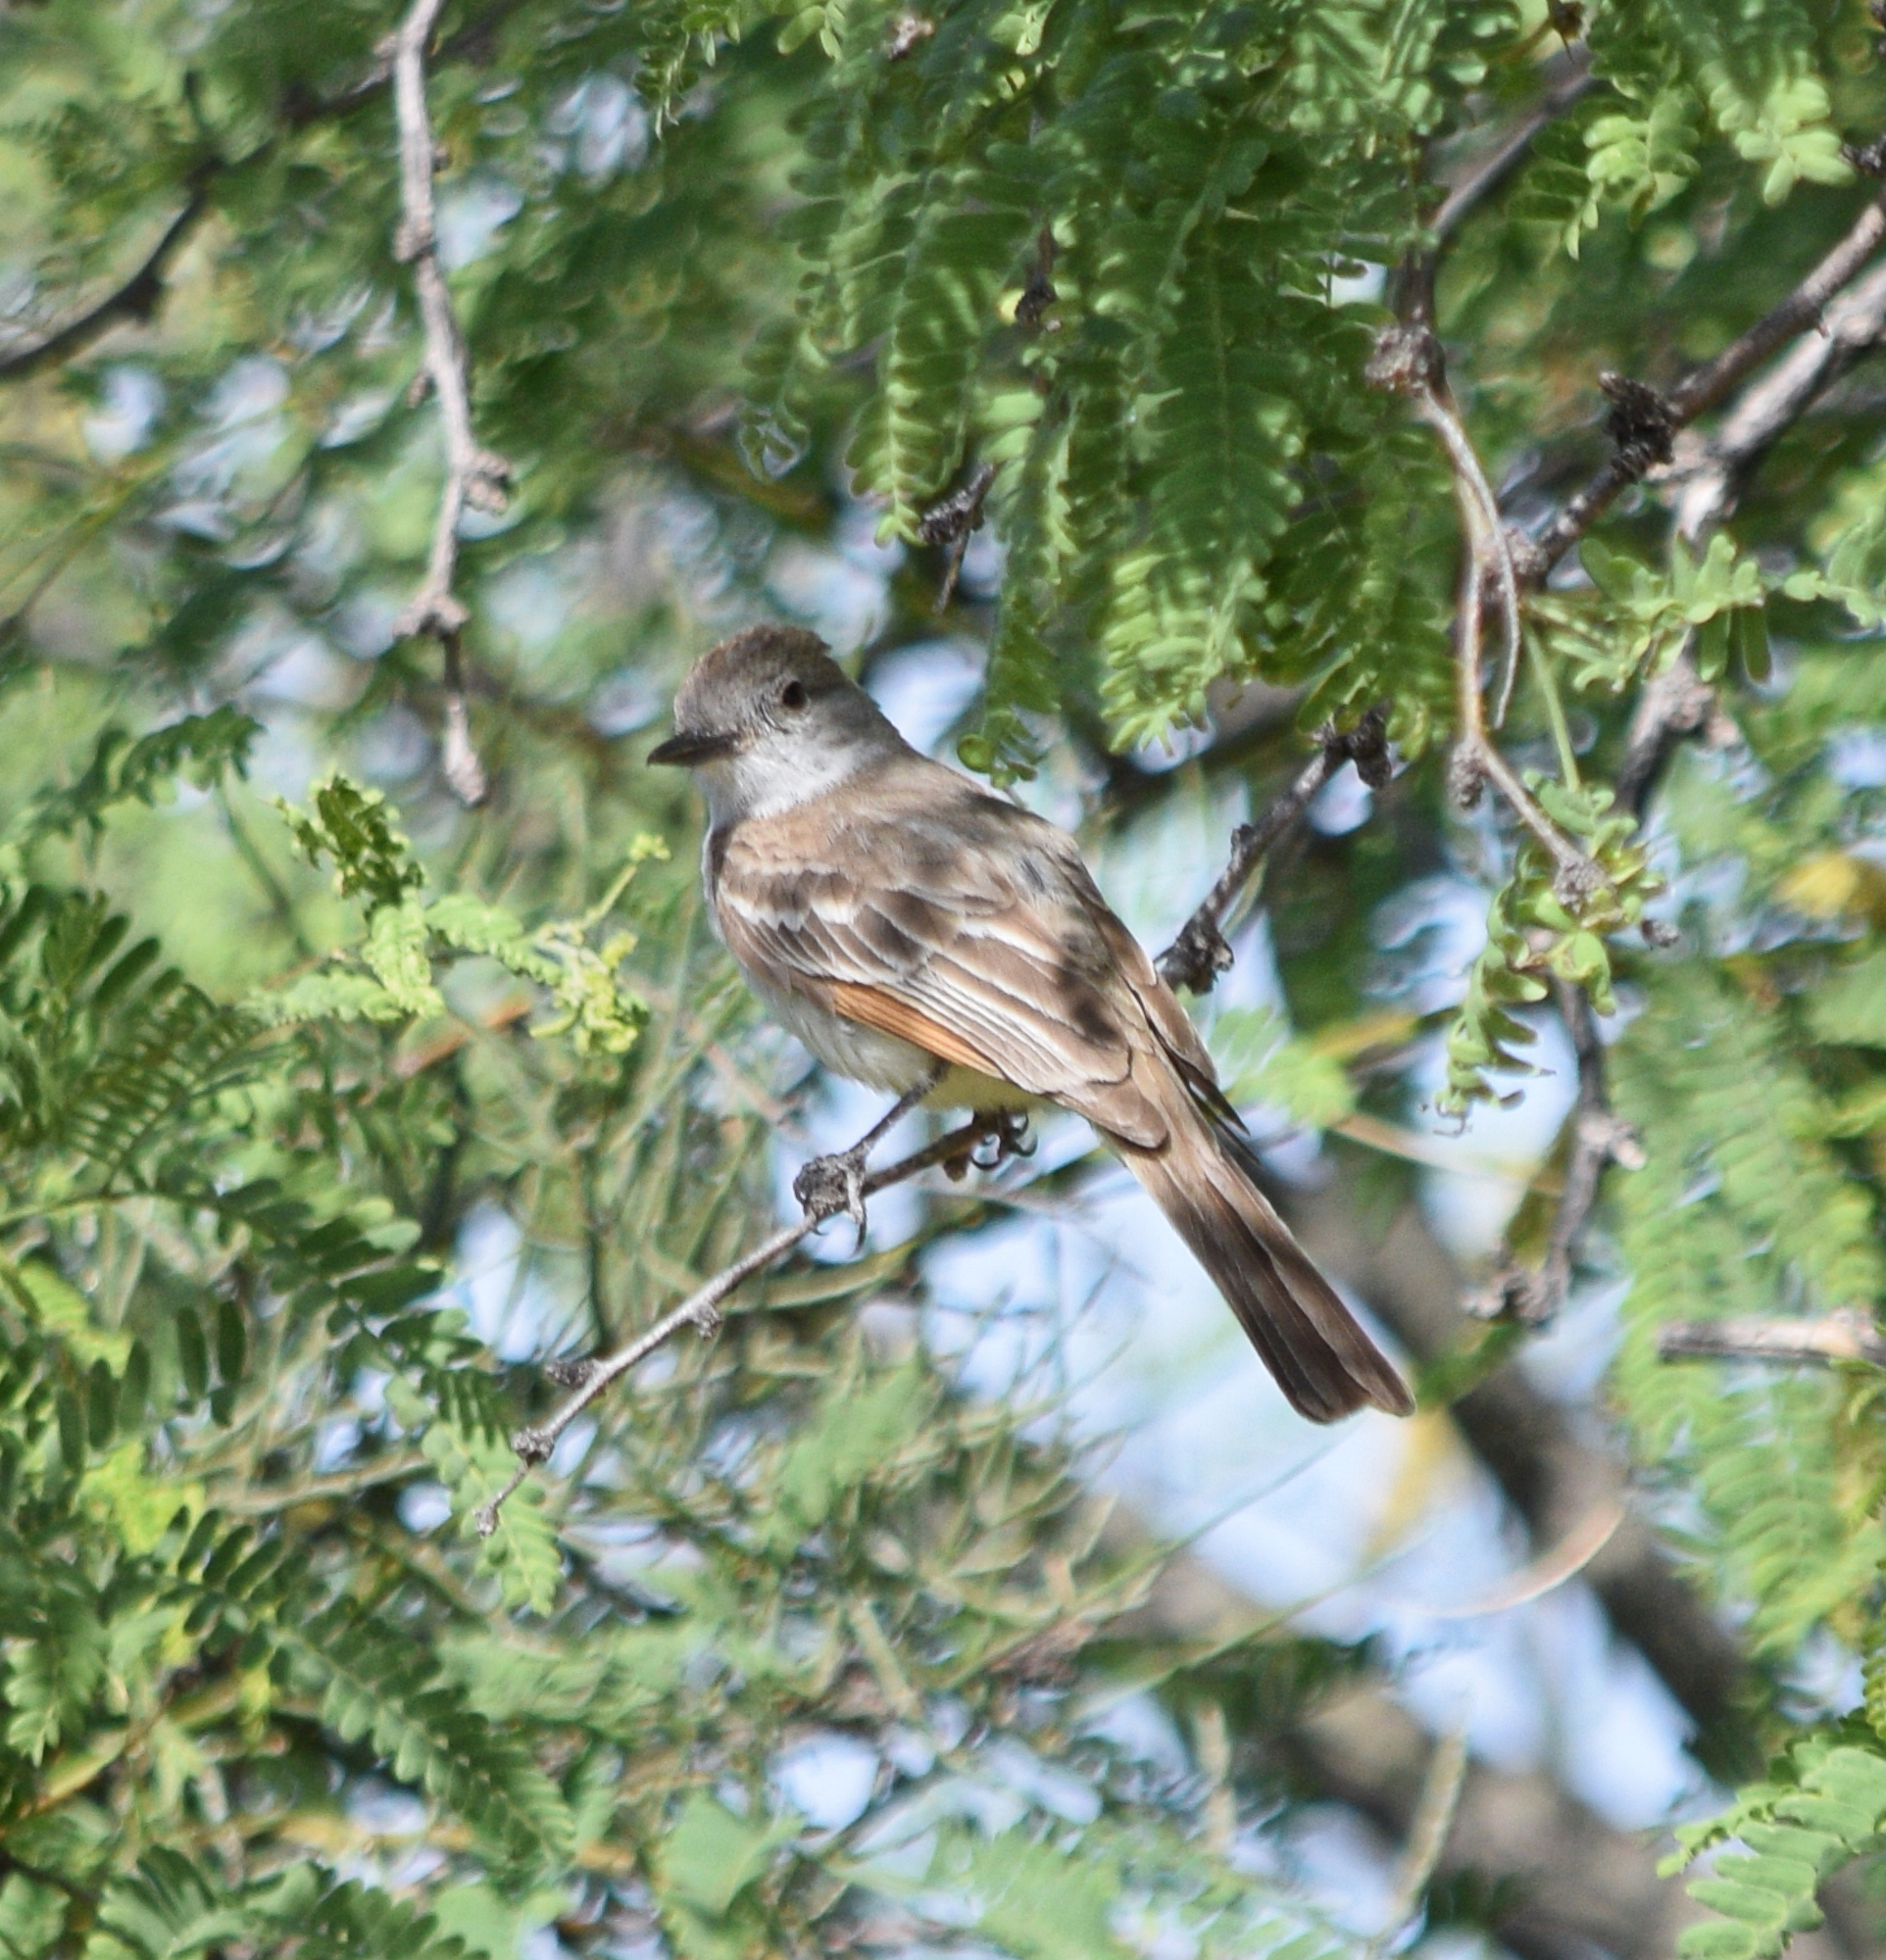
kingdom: Animalia
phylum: Chordata
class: Aves
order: Passeriformes
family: Tyrannidae
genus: Myiarchus
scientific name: Myiarchus cinerascens
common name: Ash-throated flycatcher
